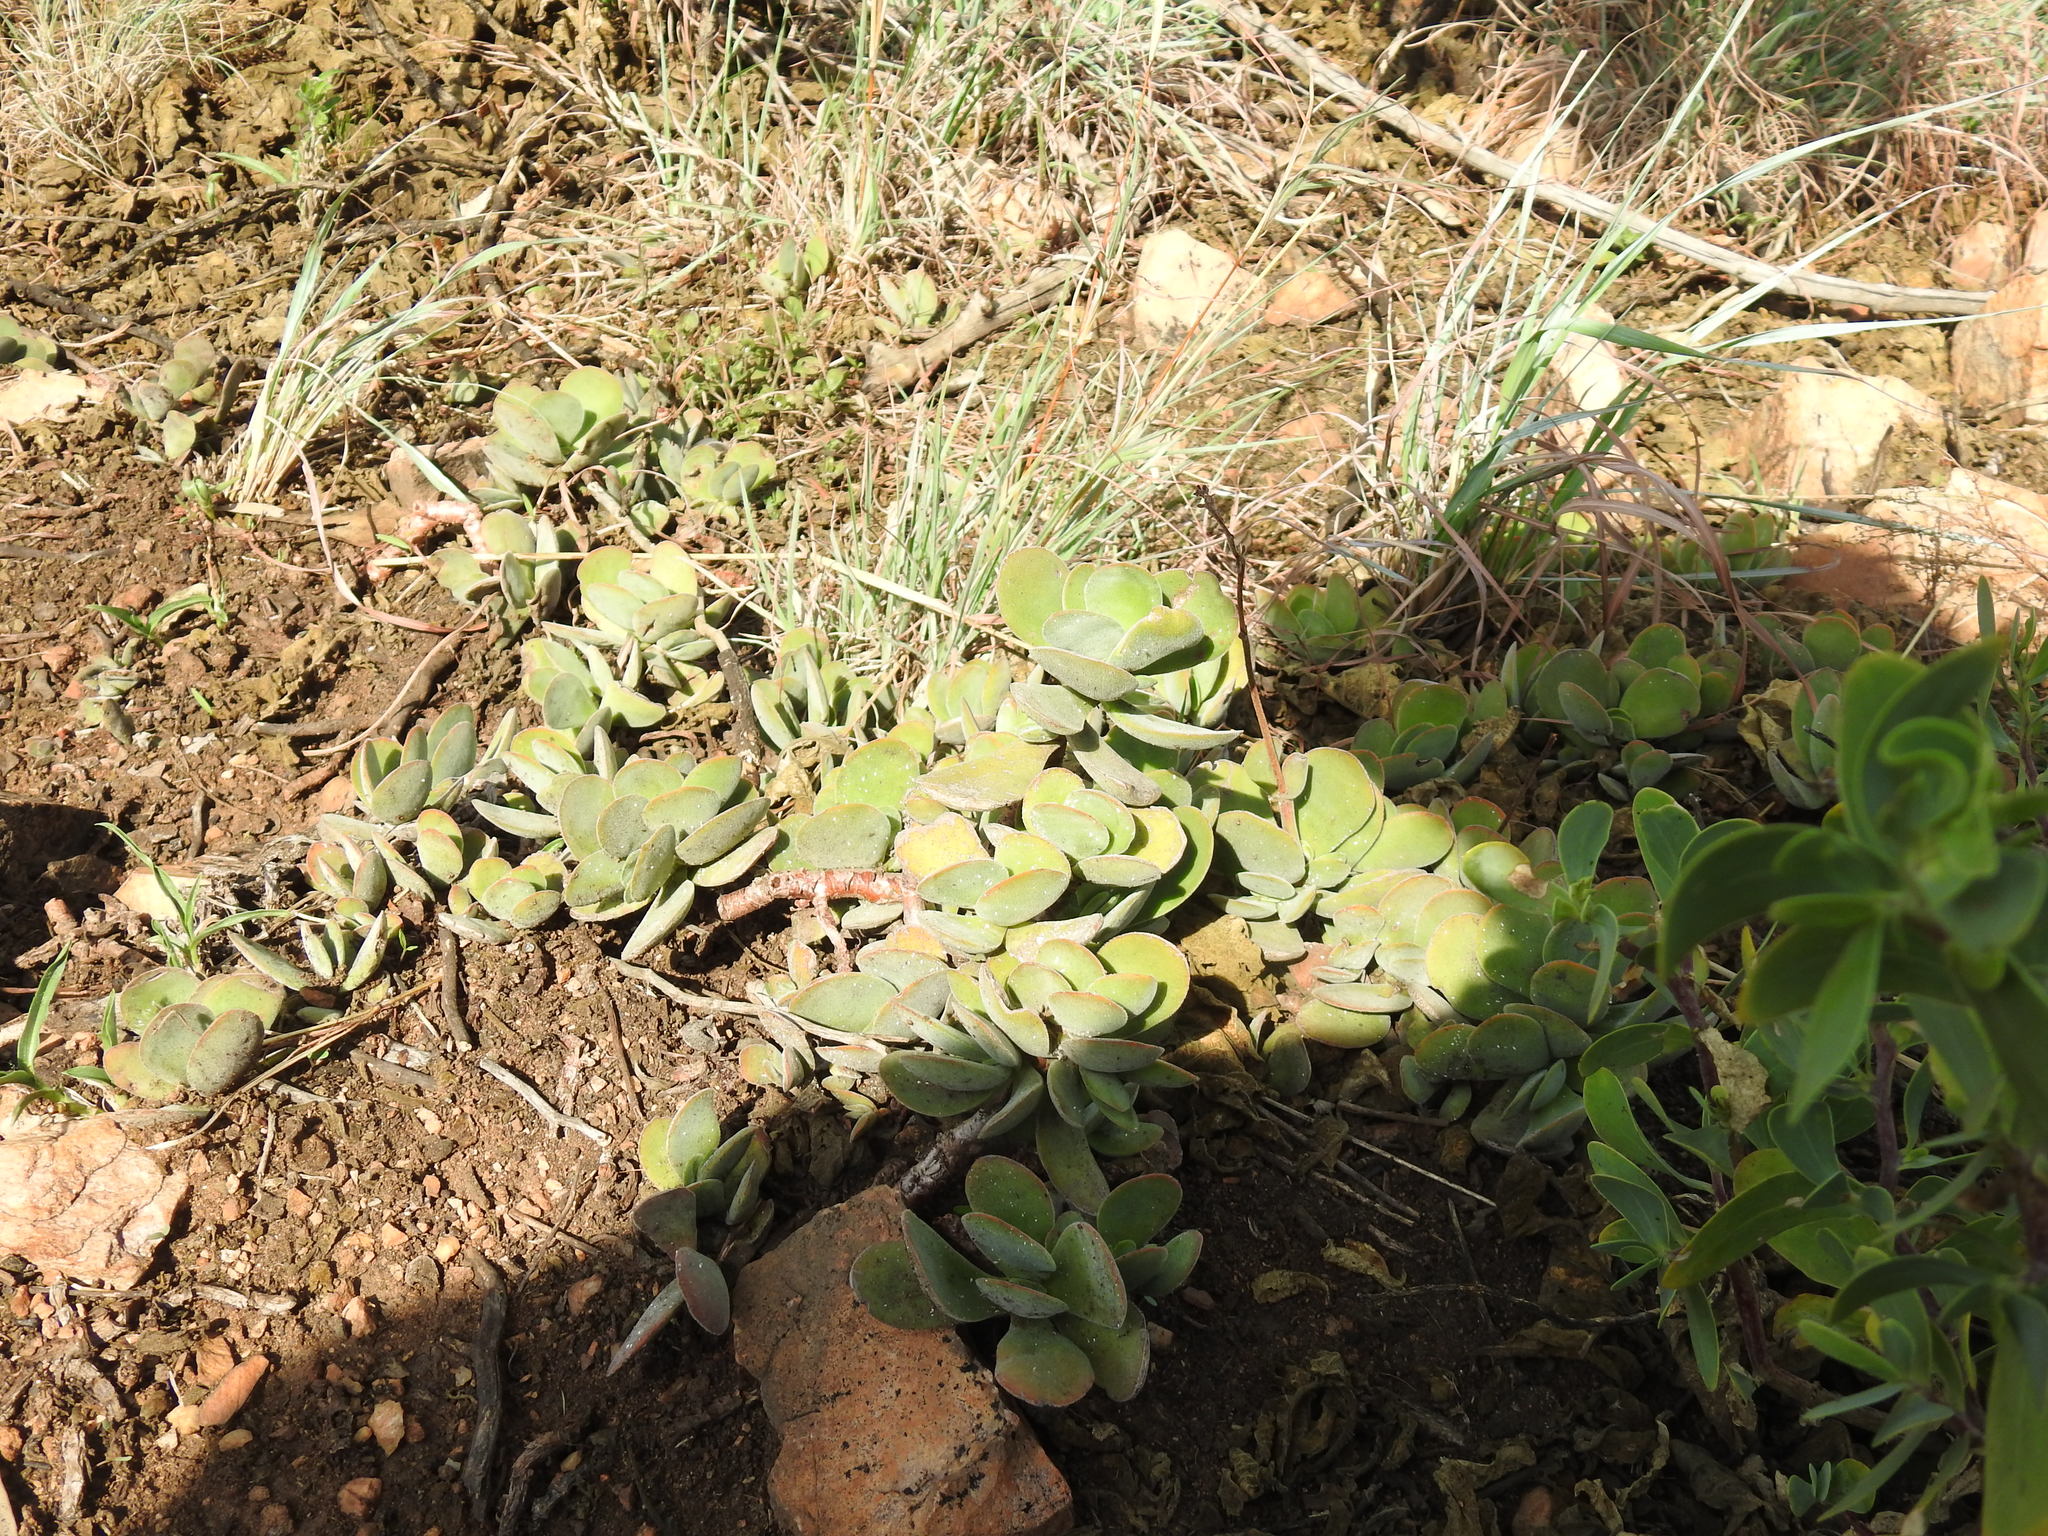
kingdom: Plantae
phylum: Tracheophyta
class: Magnoliopsida
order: Saxifragales
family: Crassulaceae
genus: Crassula
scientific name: Crassula globularioides
